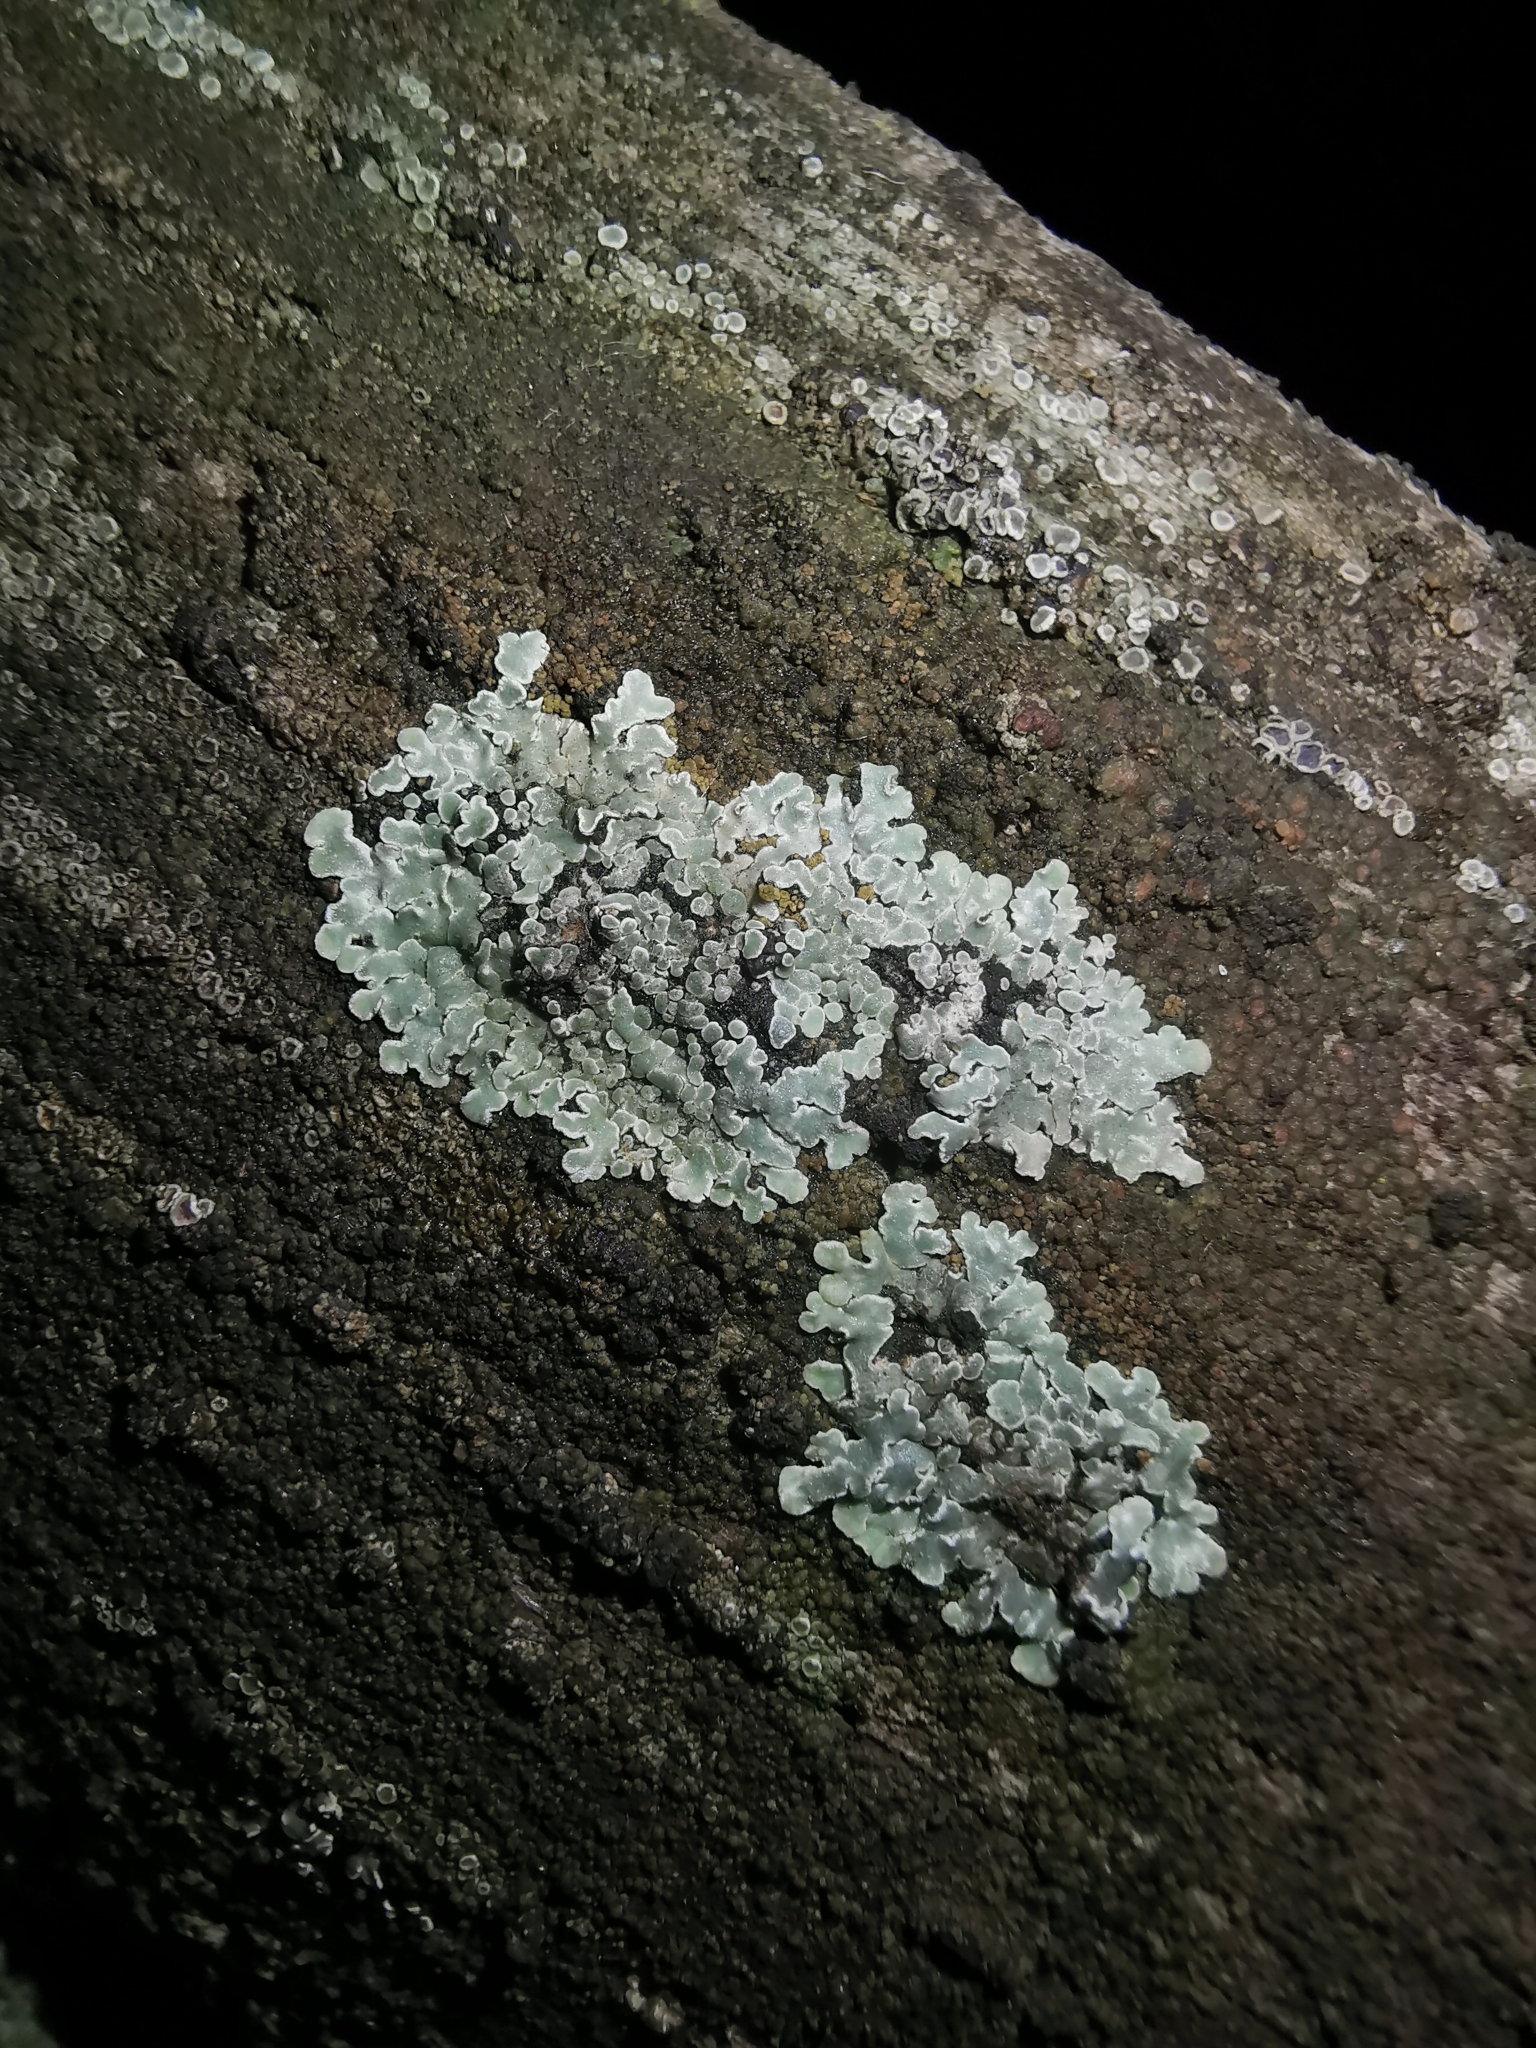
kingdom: Fungi
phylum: Ascomycota
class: Lecanoromycetes
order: Lecanorales
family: Lecanoraceae
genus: Protoparmeliopsis
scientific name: Protoparmeliopsis muralis
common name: Stonewall rim lichen
